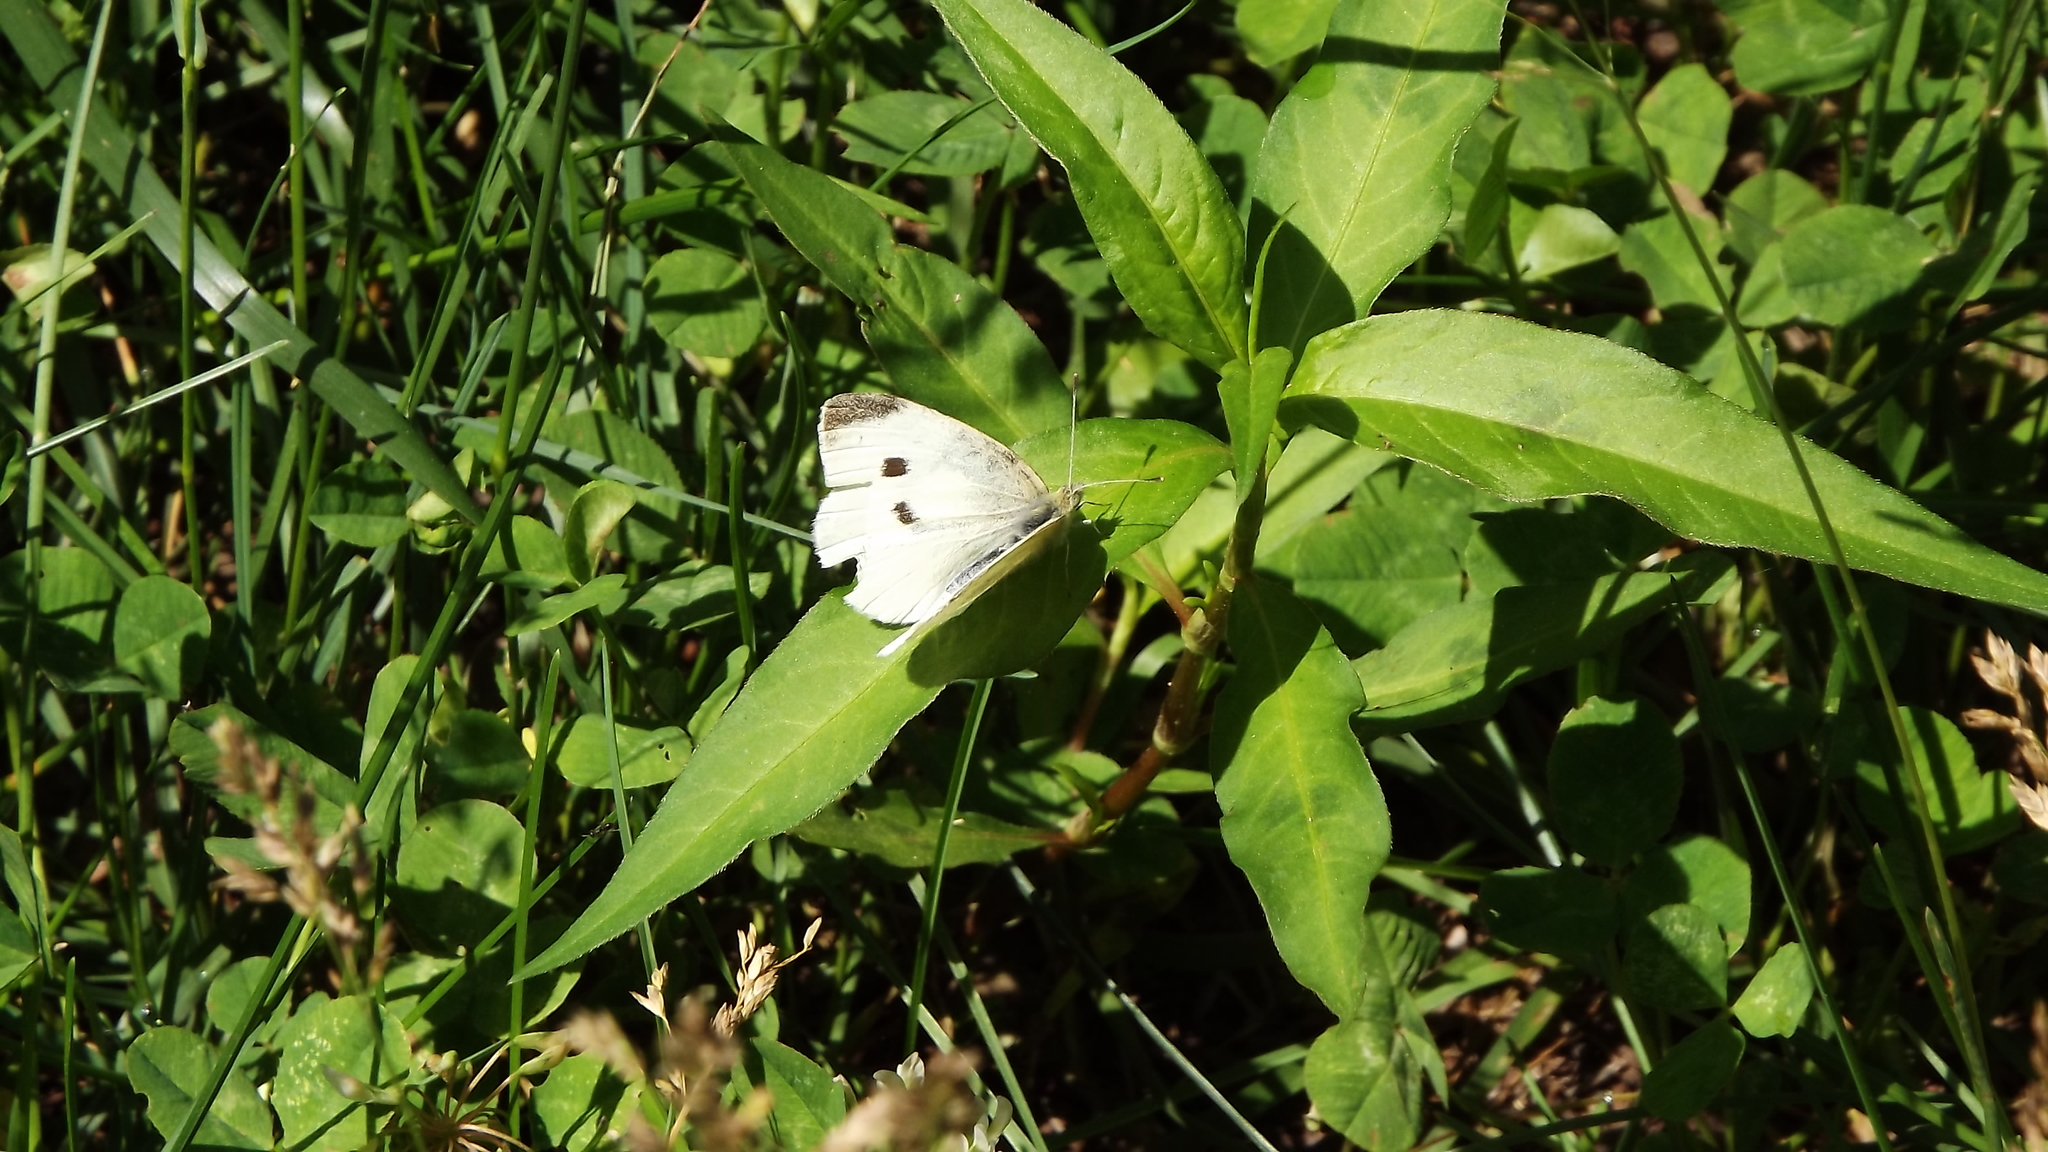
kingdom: Animalia
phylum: Arthropoda
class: Insecta
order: Lepidoptera
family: Pieridae
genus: Pieris
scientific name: Pieris rapae
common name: Small white
